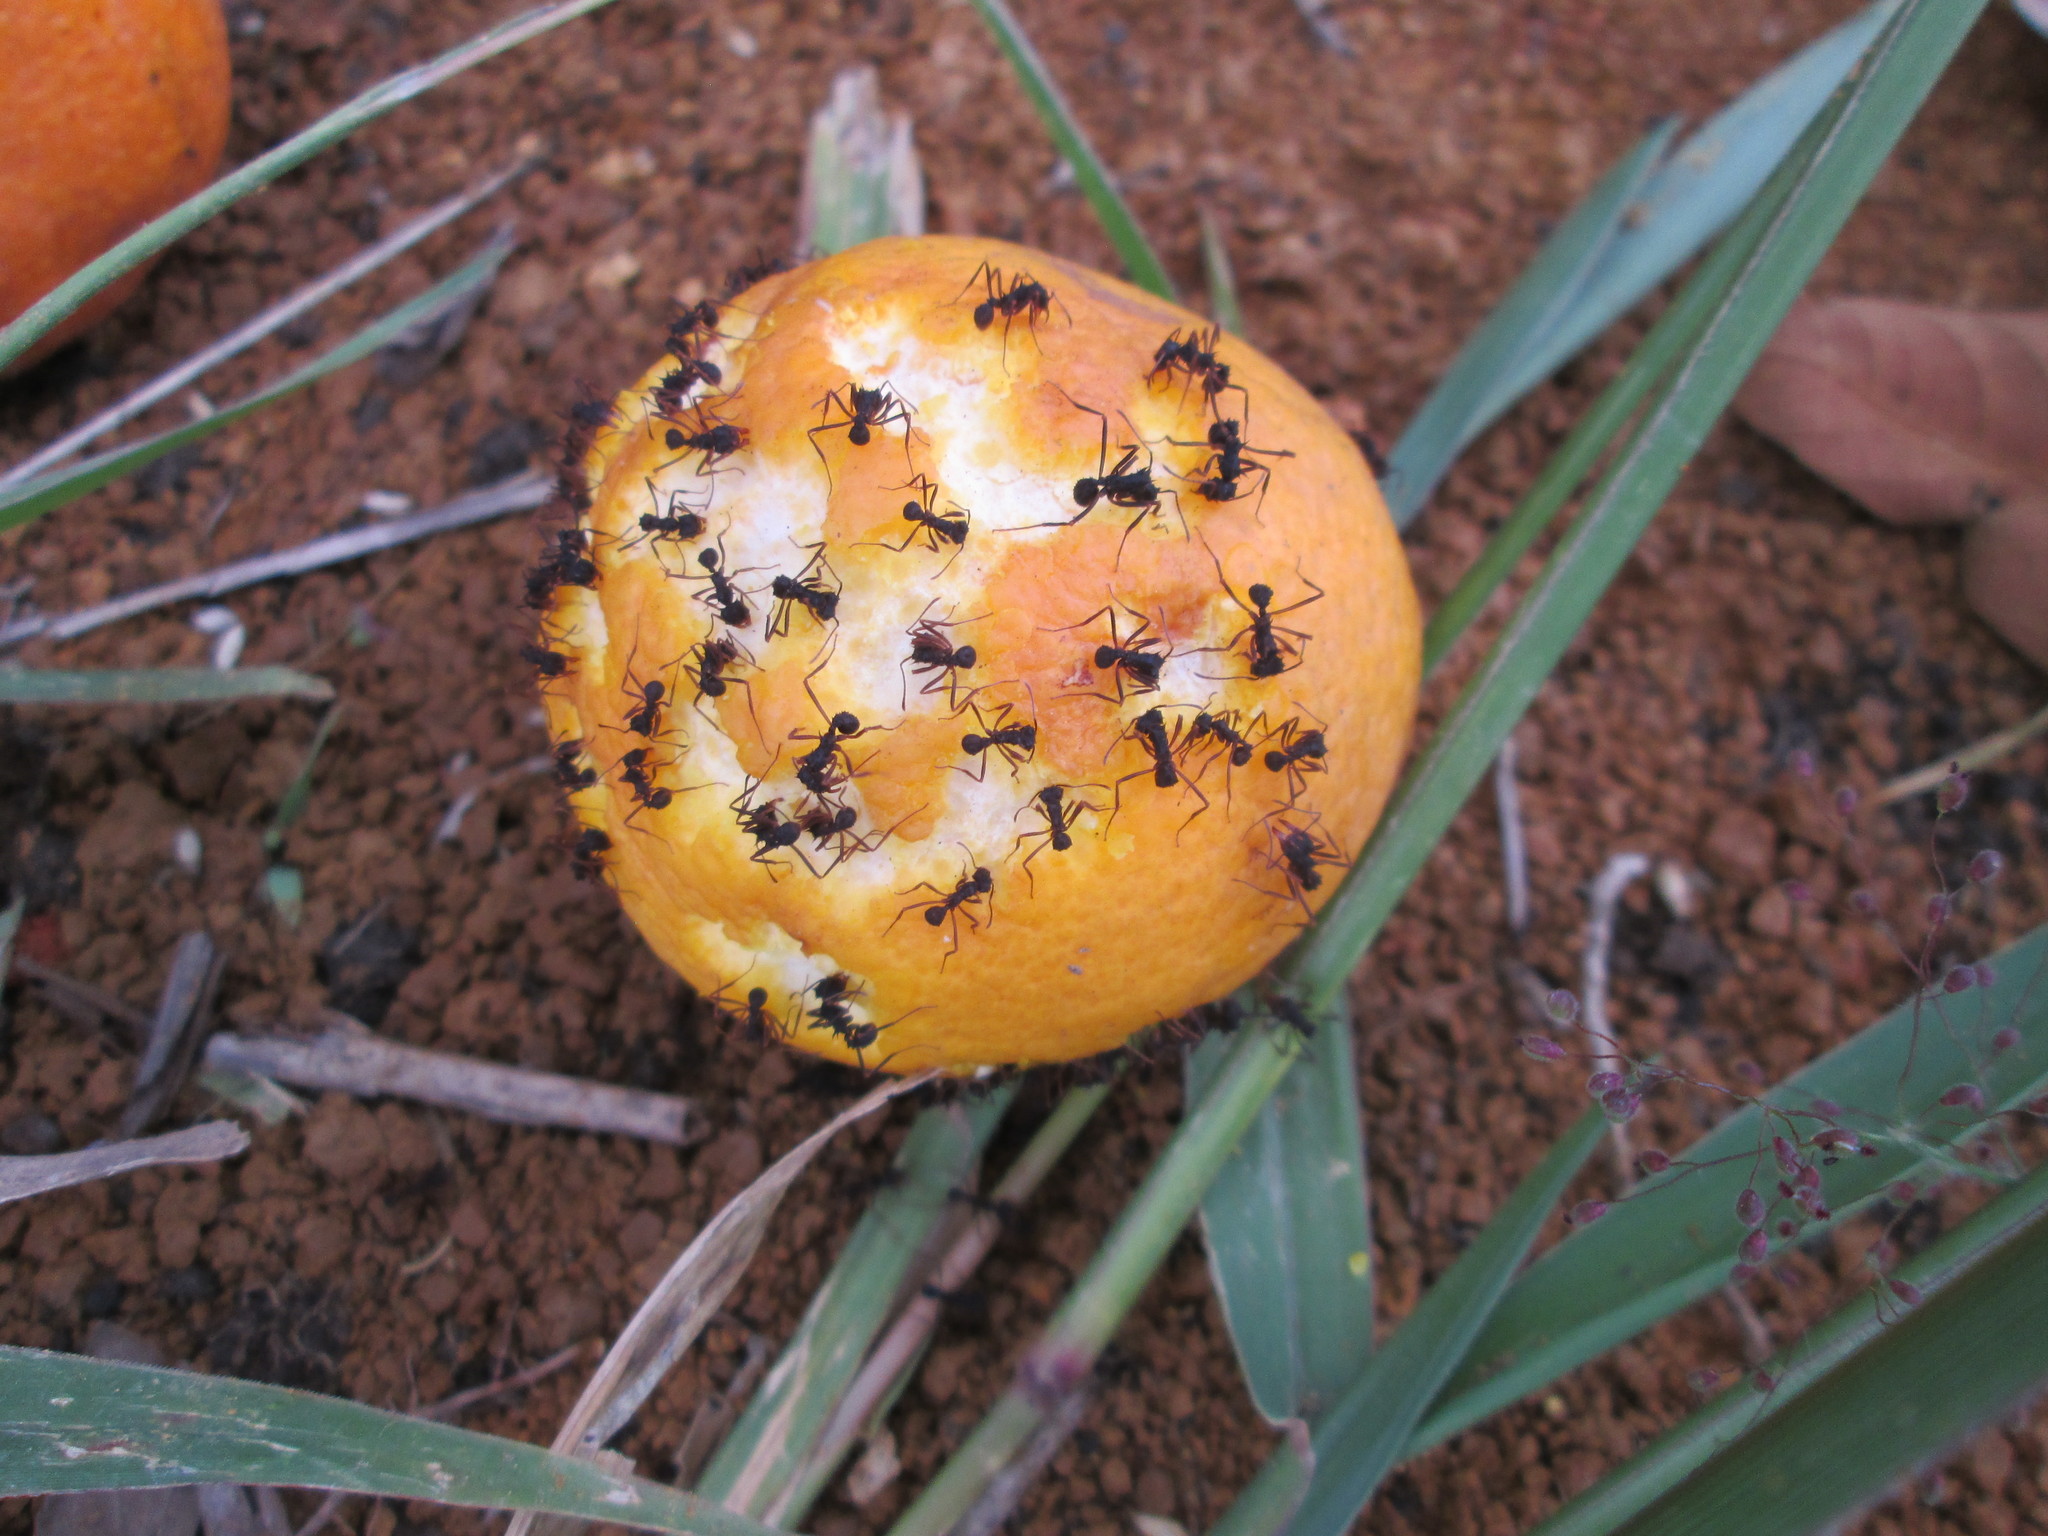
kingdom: Animalia
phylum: Arthropoda
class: Insecta
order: Hymenoptera
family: Formicidae
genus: Acromyrmex
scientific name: Acromyrmex aspersus
